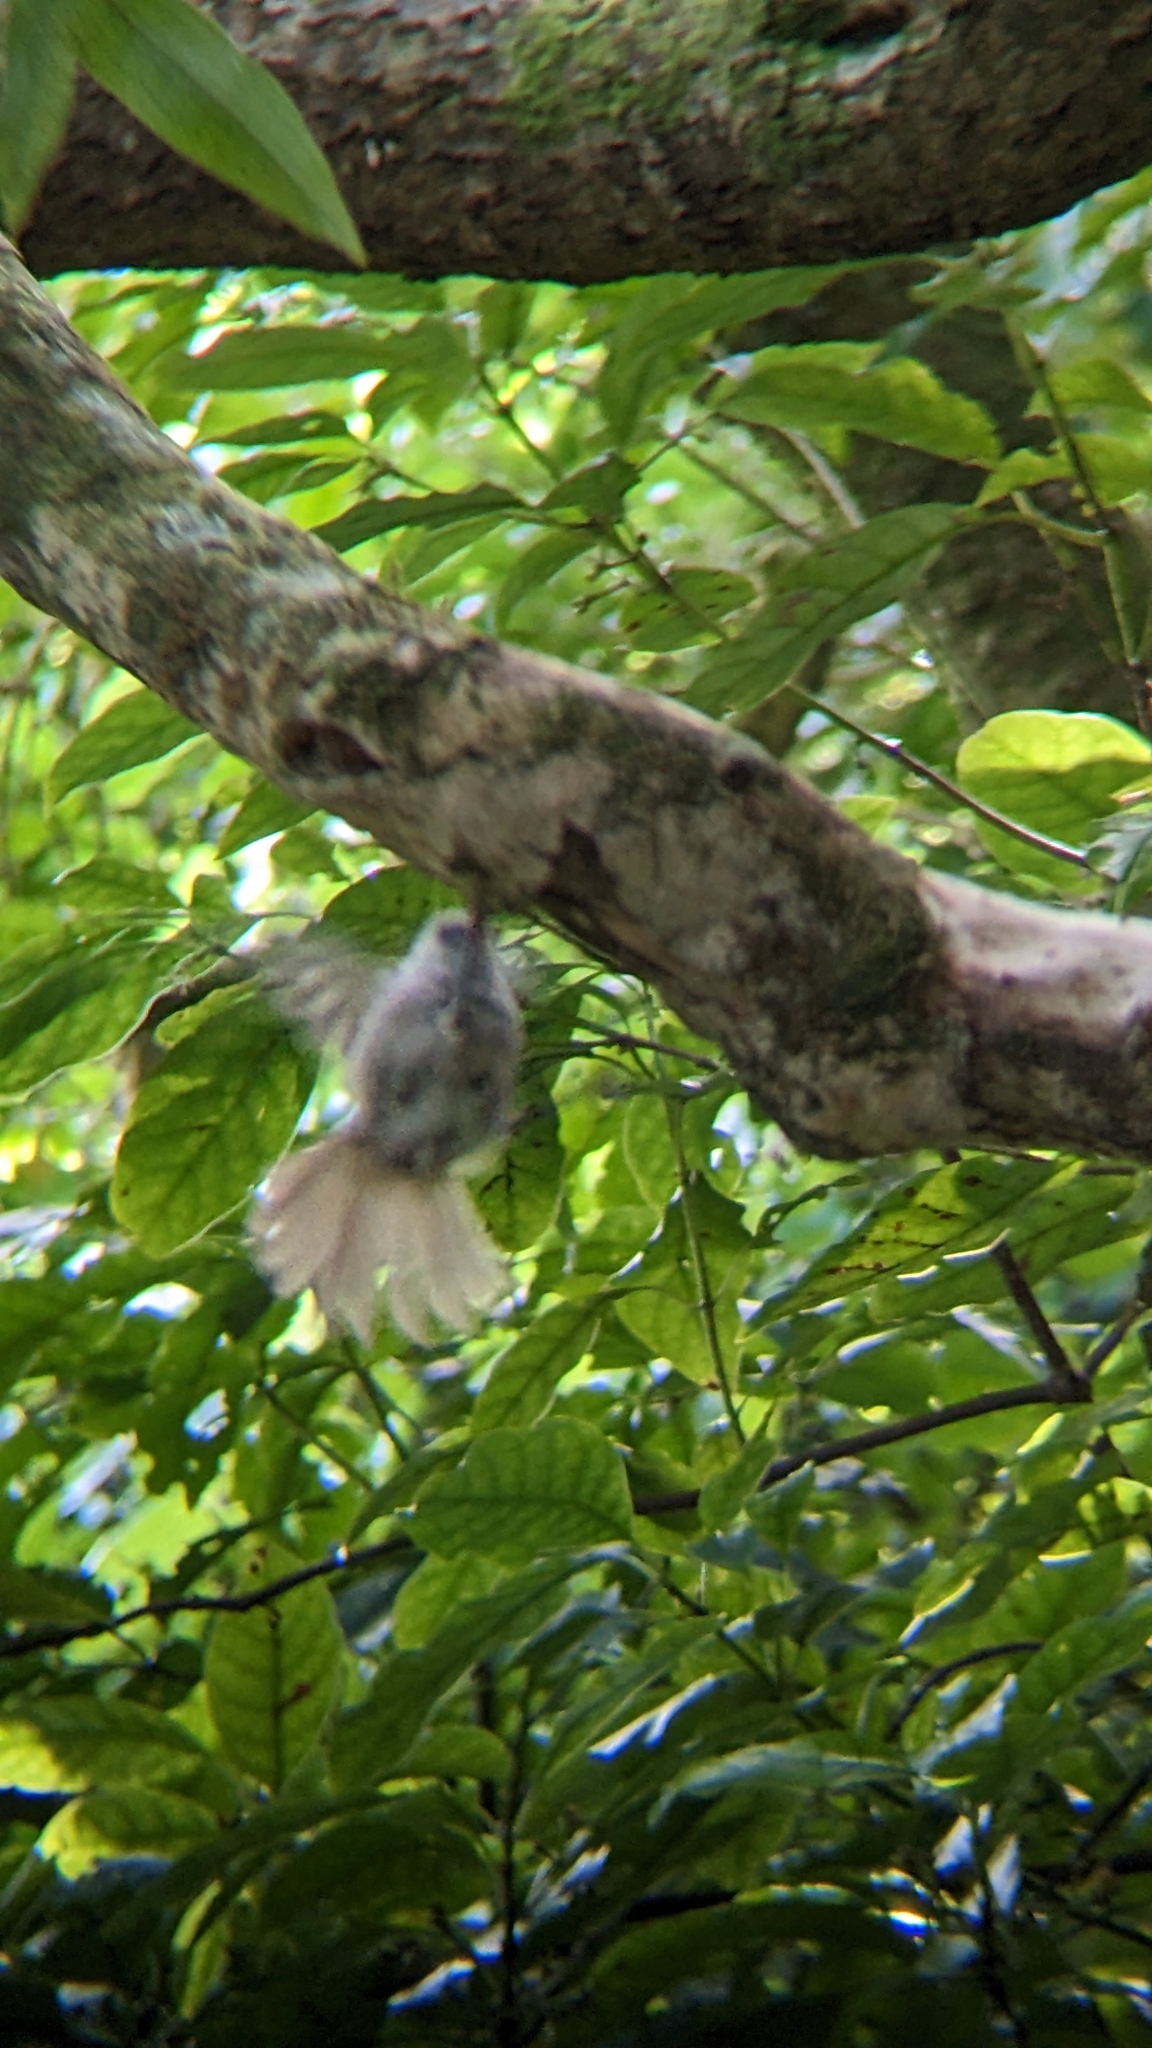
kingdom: Animalia
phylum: Chordata
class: Aves
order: Passeriformes
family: Acanthizidae
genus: Mohoua
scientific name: Mohoua albicilla
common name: Whitehead
